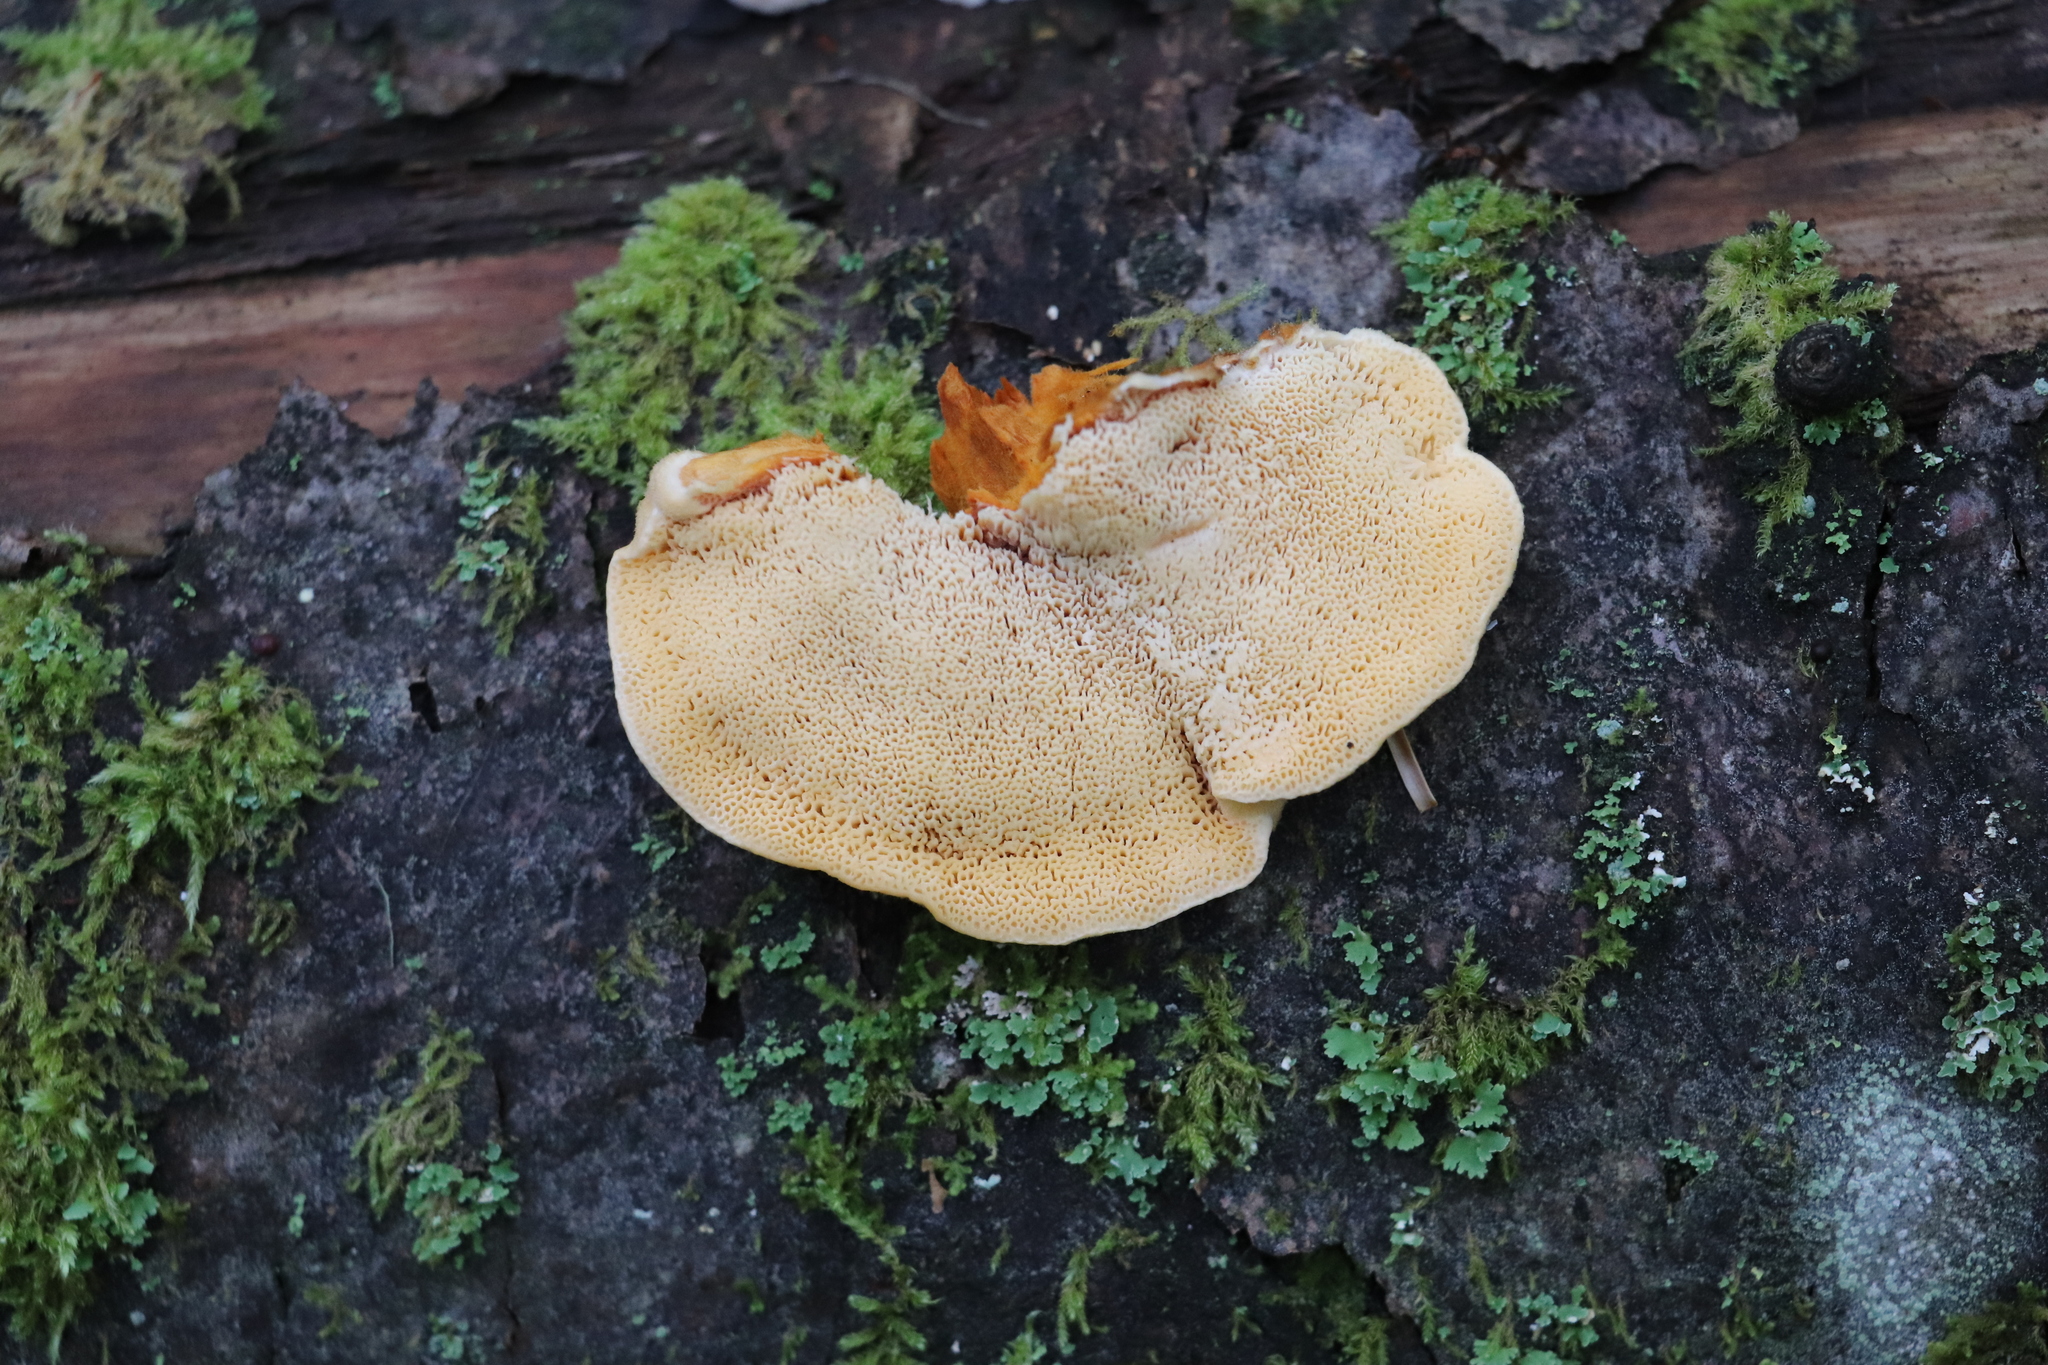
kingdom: Fungi
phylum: Basidiomycota
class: Agaricomycetes
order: Polyporales
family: Pycnoporellaceae
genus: Pycnoporellus
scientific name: Pycnoporellus fulgens
